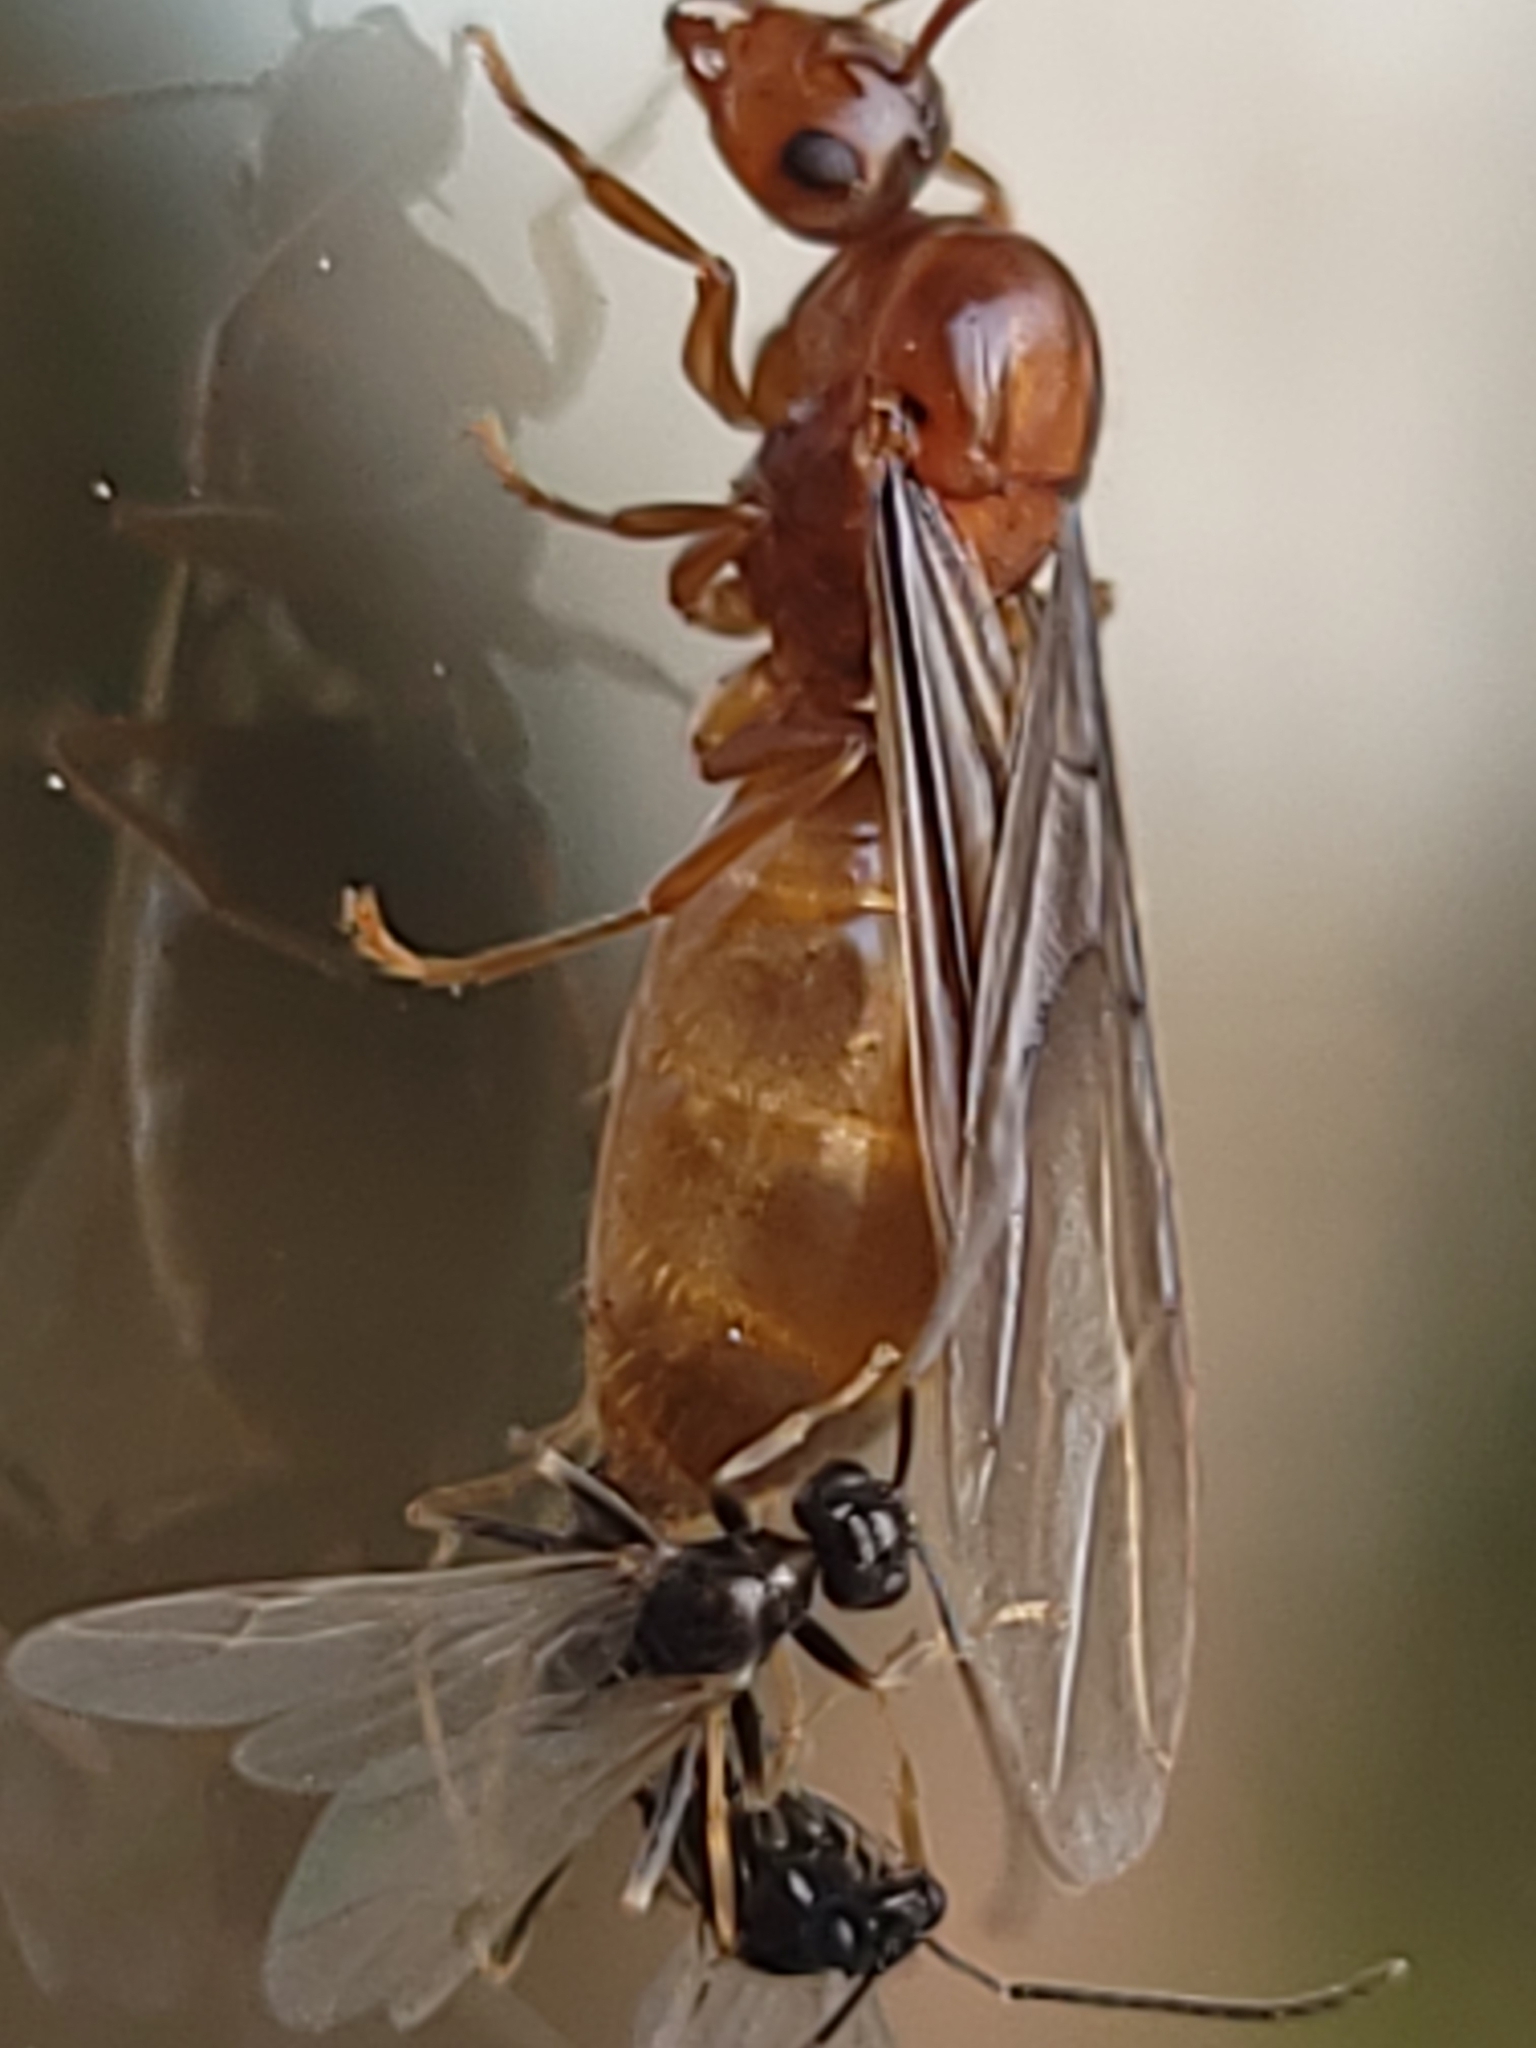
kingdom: Animalia
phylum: Arthropoda
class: Insecta
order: Hymenoptera
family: Formicidae
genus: Prenolepis
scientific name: Prenolepis imparis
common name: Small honey ant
